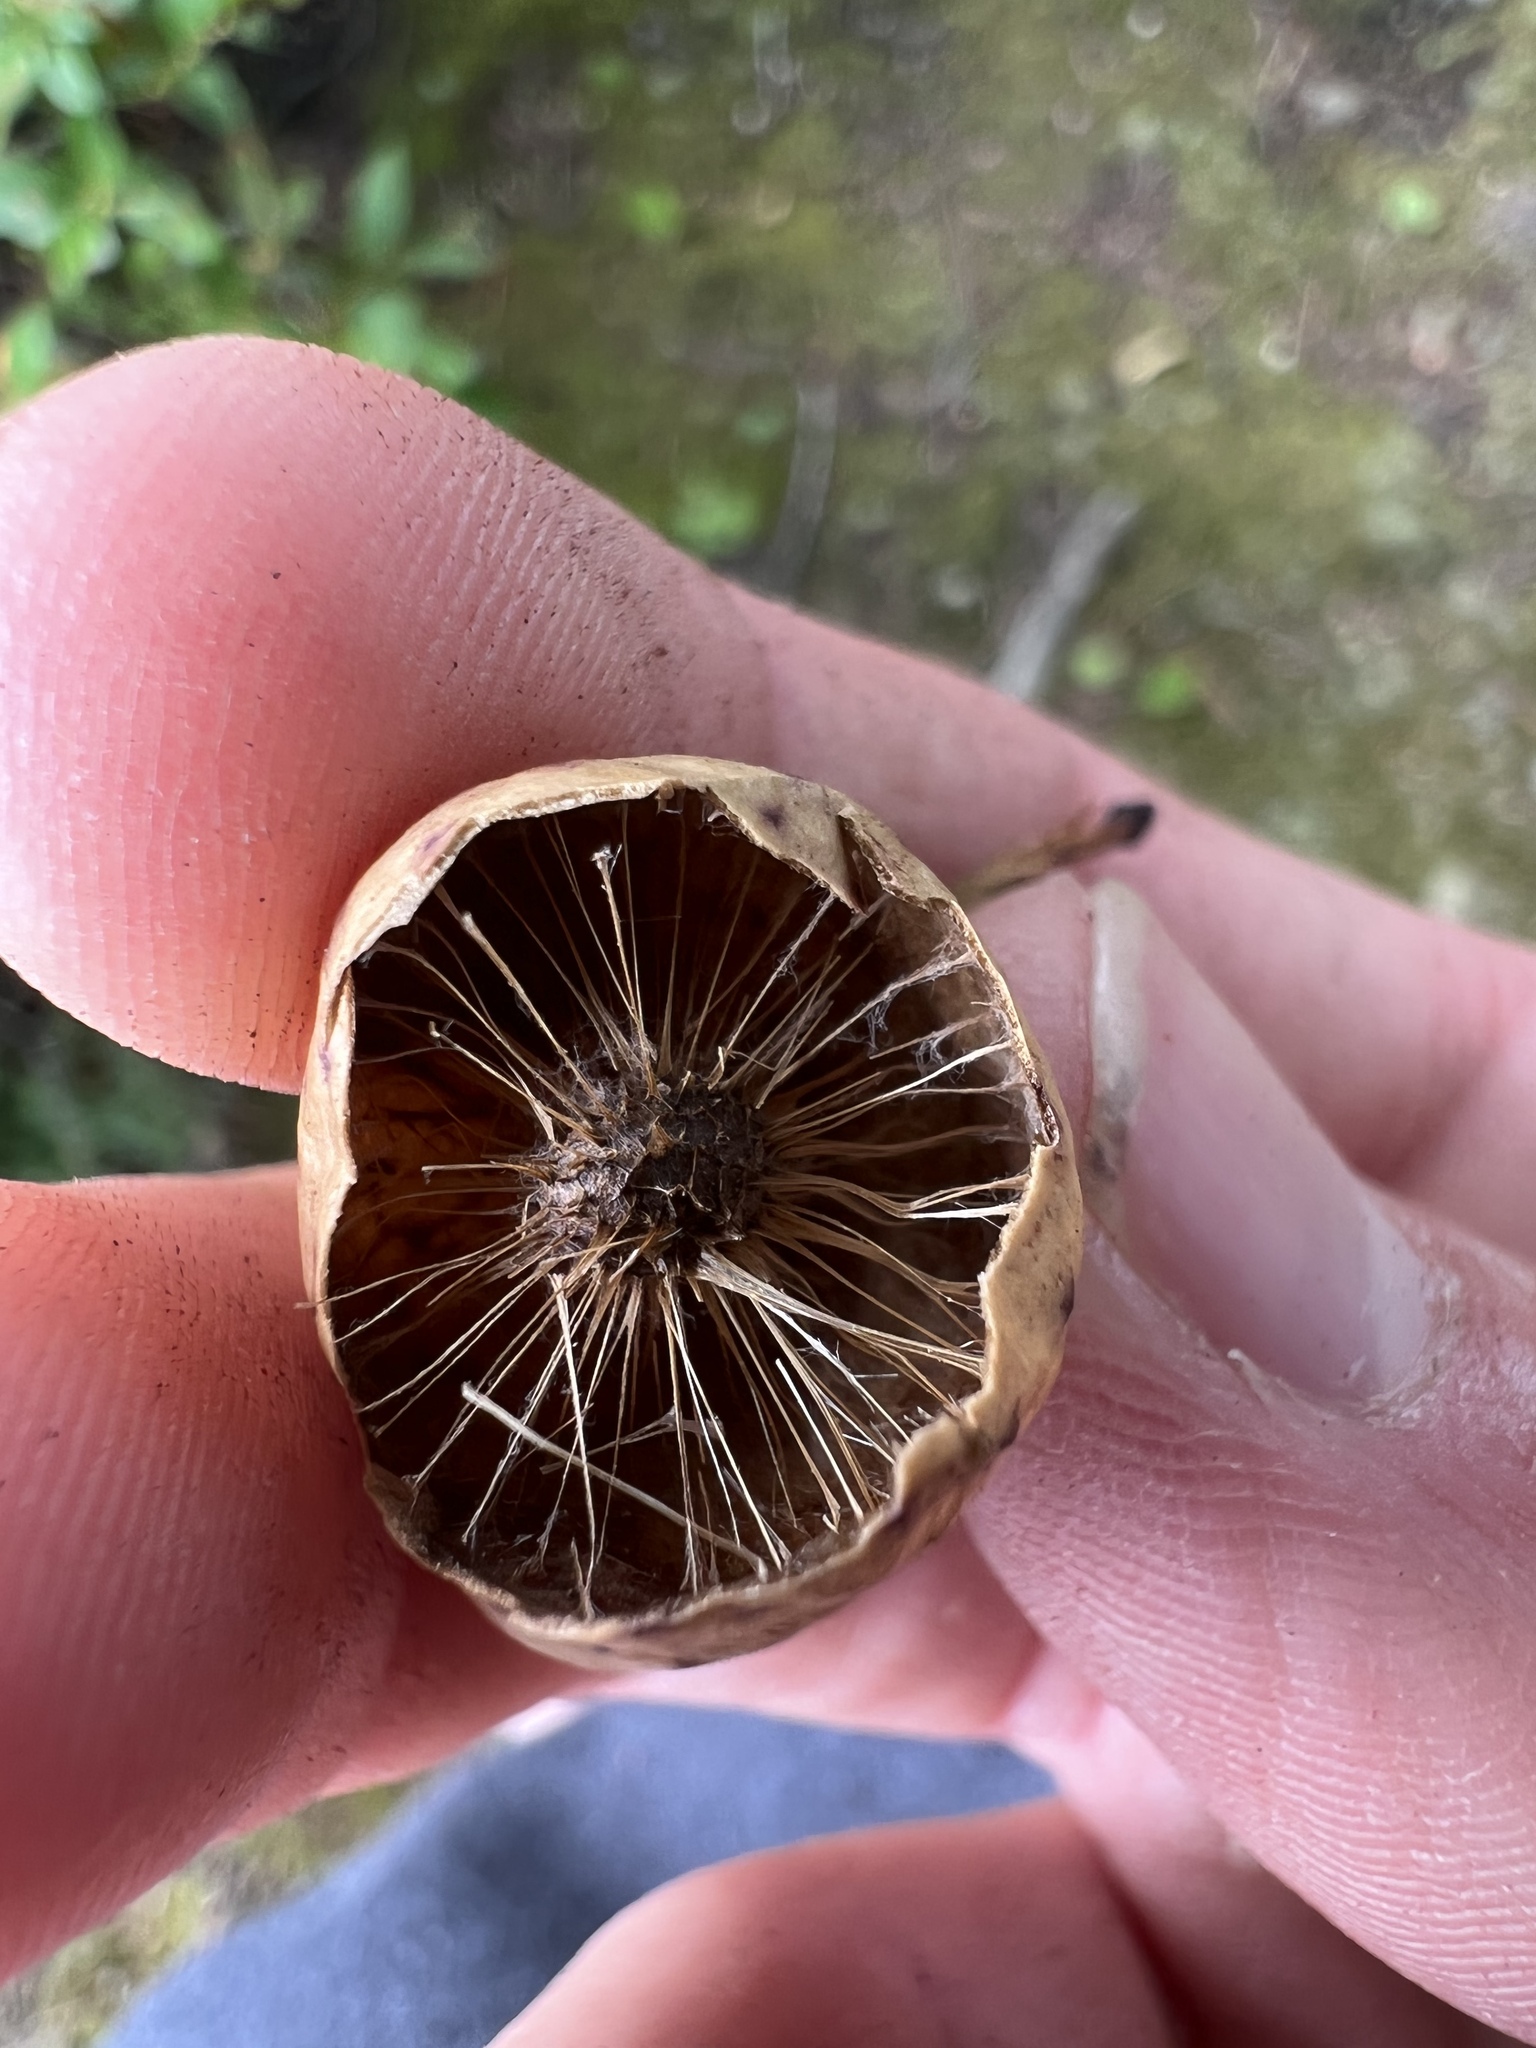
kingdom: Animalia
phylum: Arthropoda
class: Insecta
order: Hymenoptera
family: Cynipidae
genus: Amphibolips
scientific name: Amphibolips
